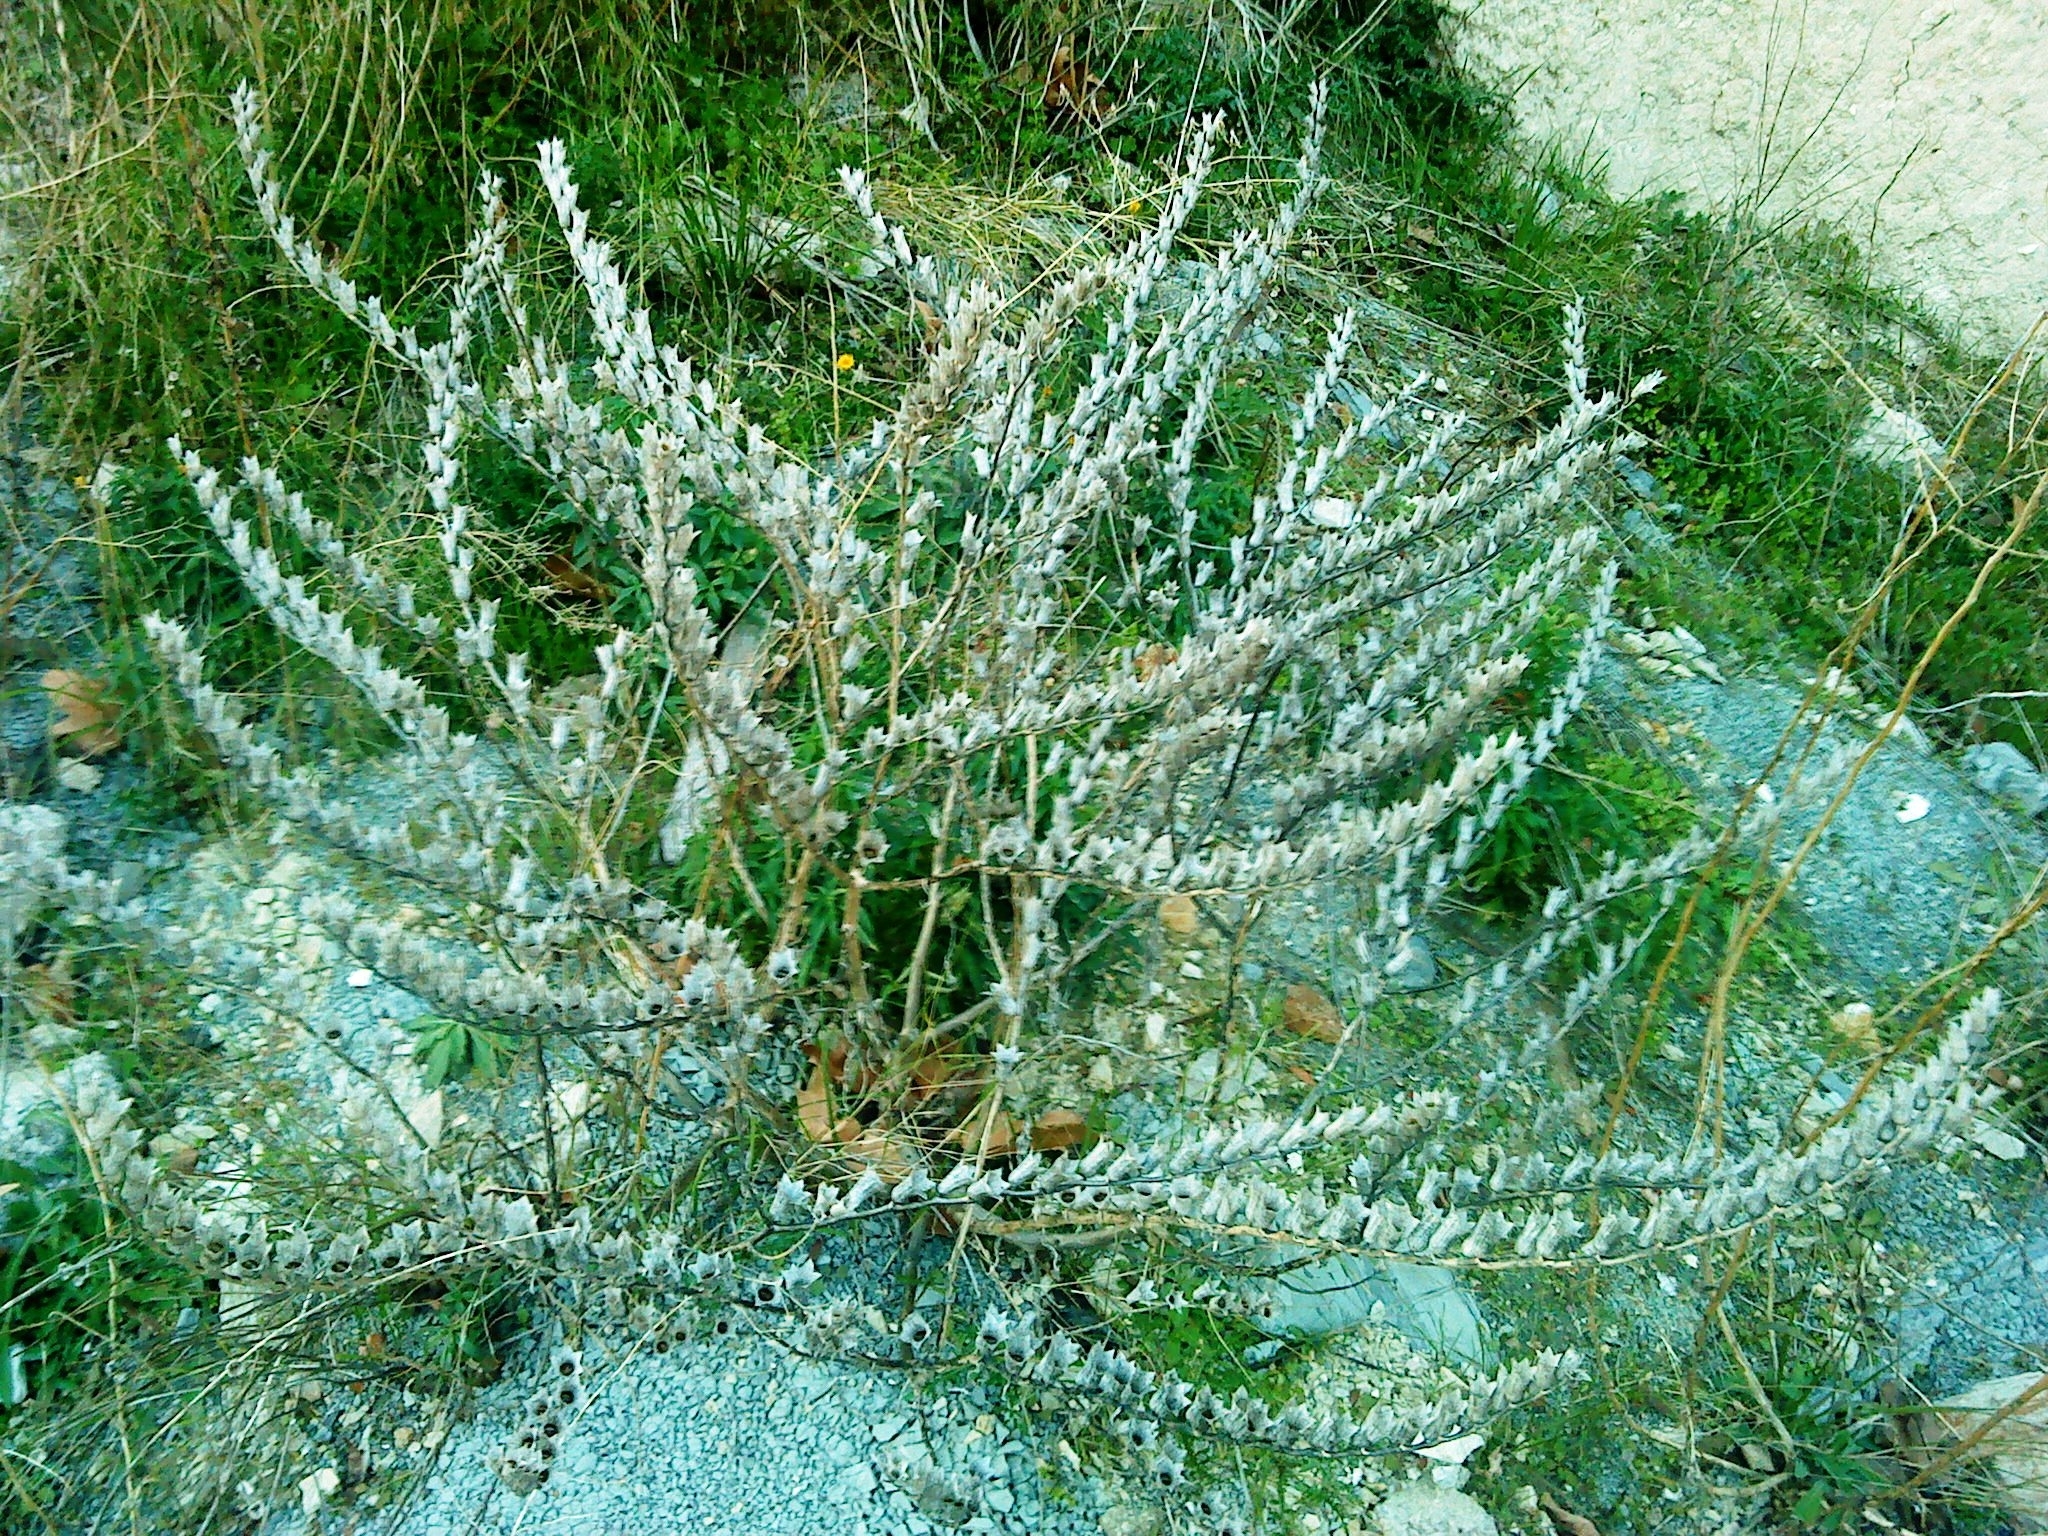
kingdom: Plantae
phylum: Tracheophyta
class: Magnoliopsida
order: Solanales
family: Solanaceae
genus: Hyoscyamus
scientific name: Hyoscyamus albus
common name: White henbane
